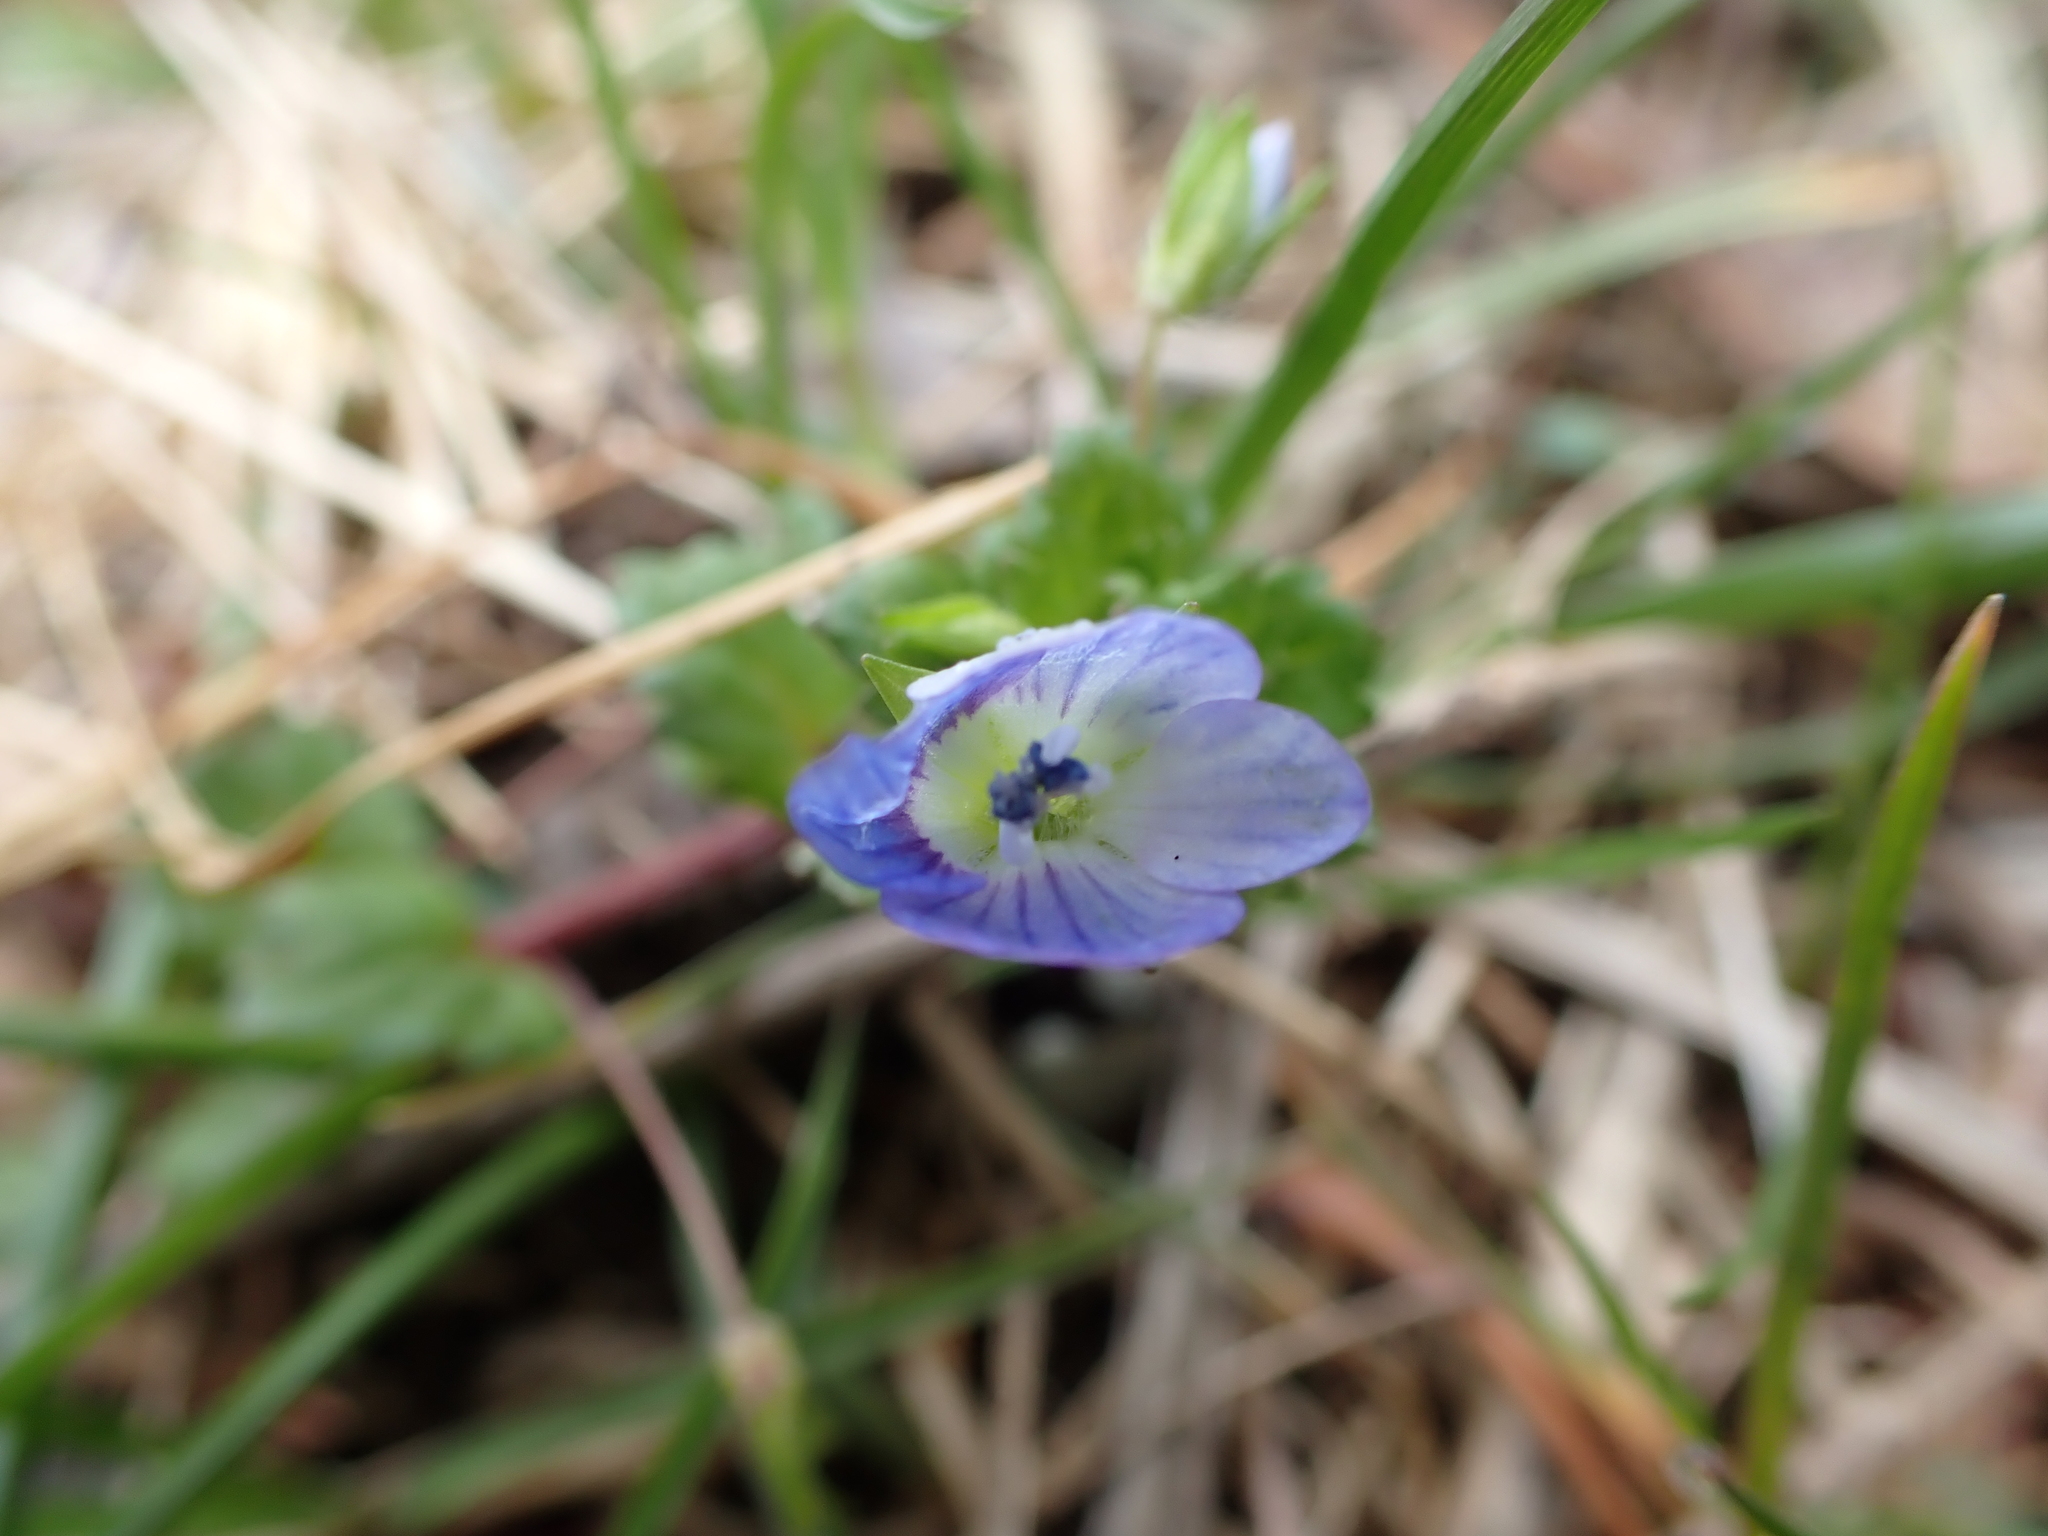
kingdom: Plantae
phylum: Tracheophyta
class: Magnoliopsida
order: Lamiales
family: Plantaginaceae
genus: Veronica
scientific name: Veronica persica
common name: Common field-speedwell
